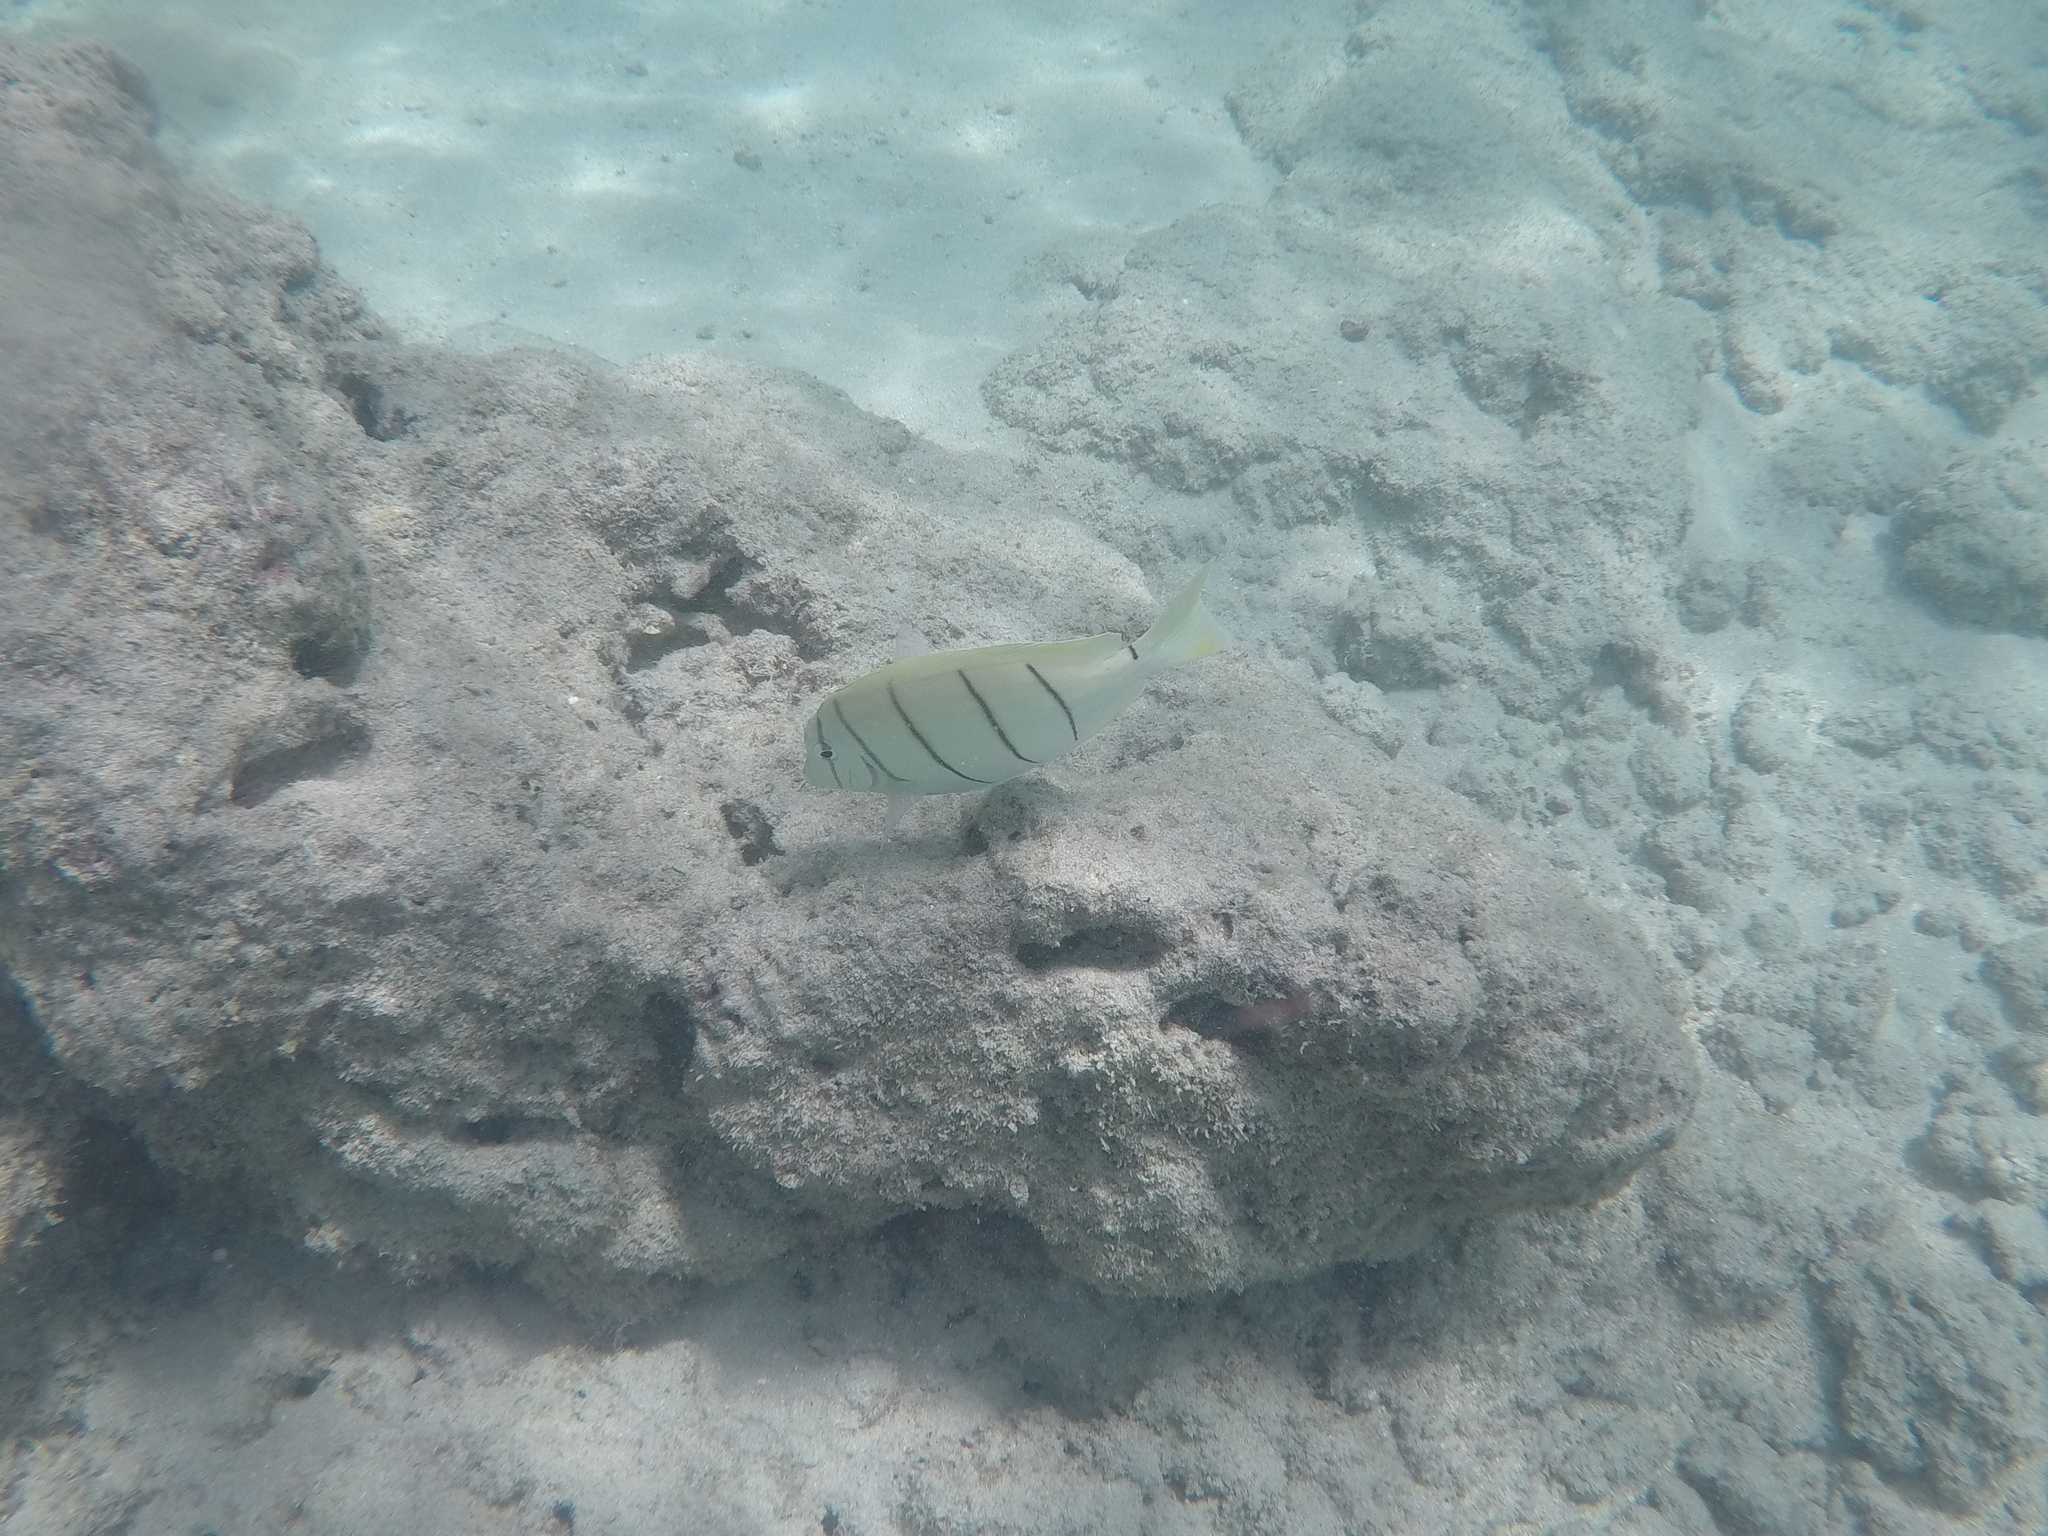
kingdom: Animalia
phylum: Chordata
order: Perciformes
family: Acanthuridae
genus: Acanthurus
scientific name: Acanthurus triostegus
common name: Convict surgeonfish
